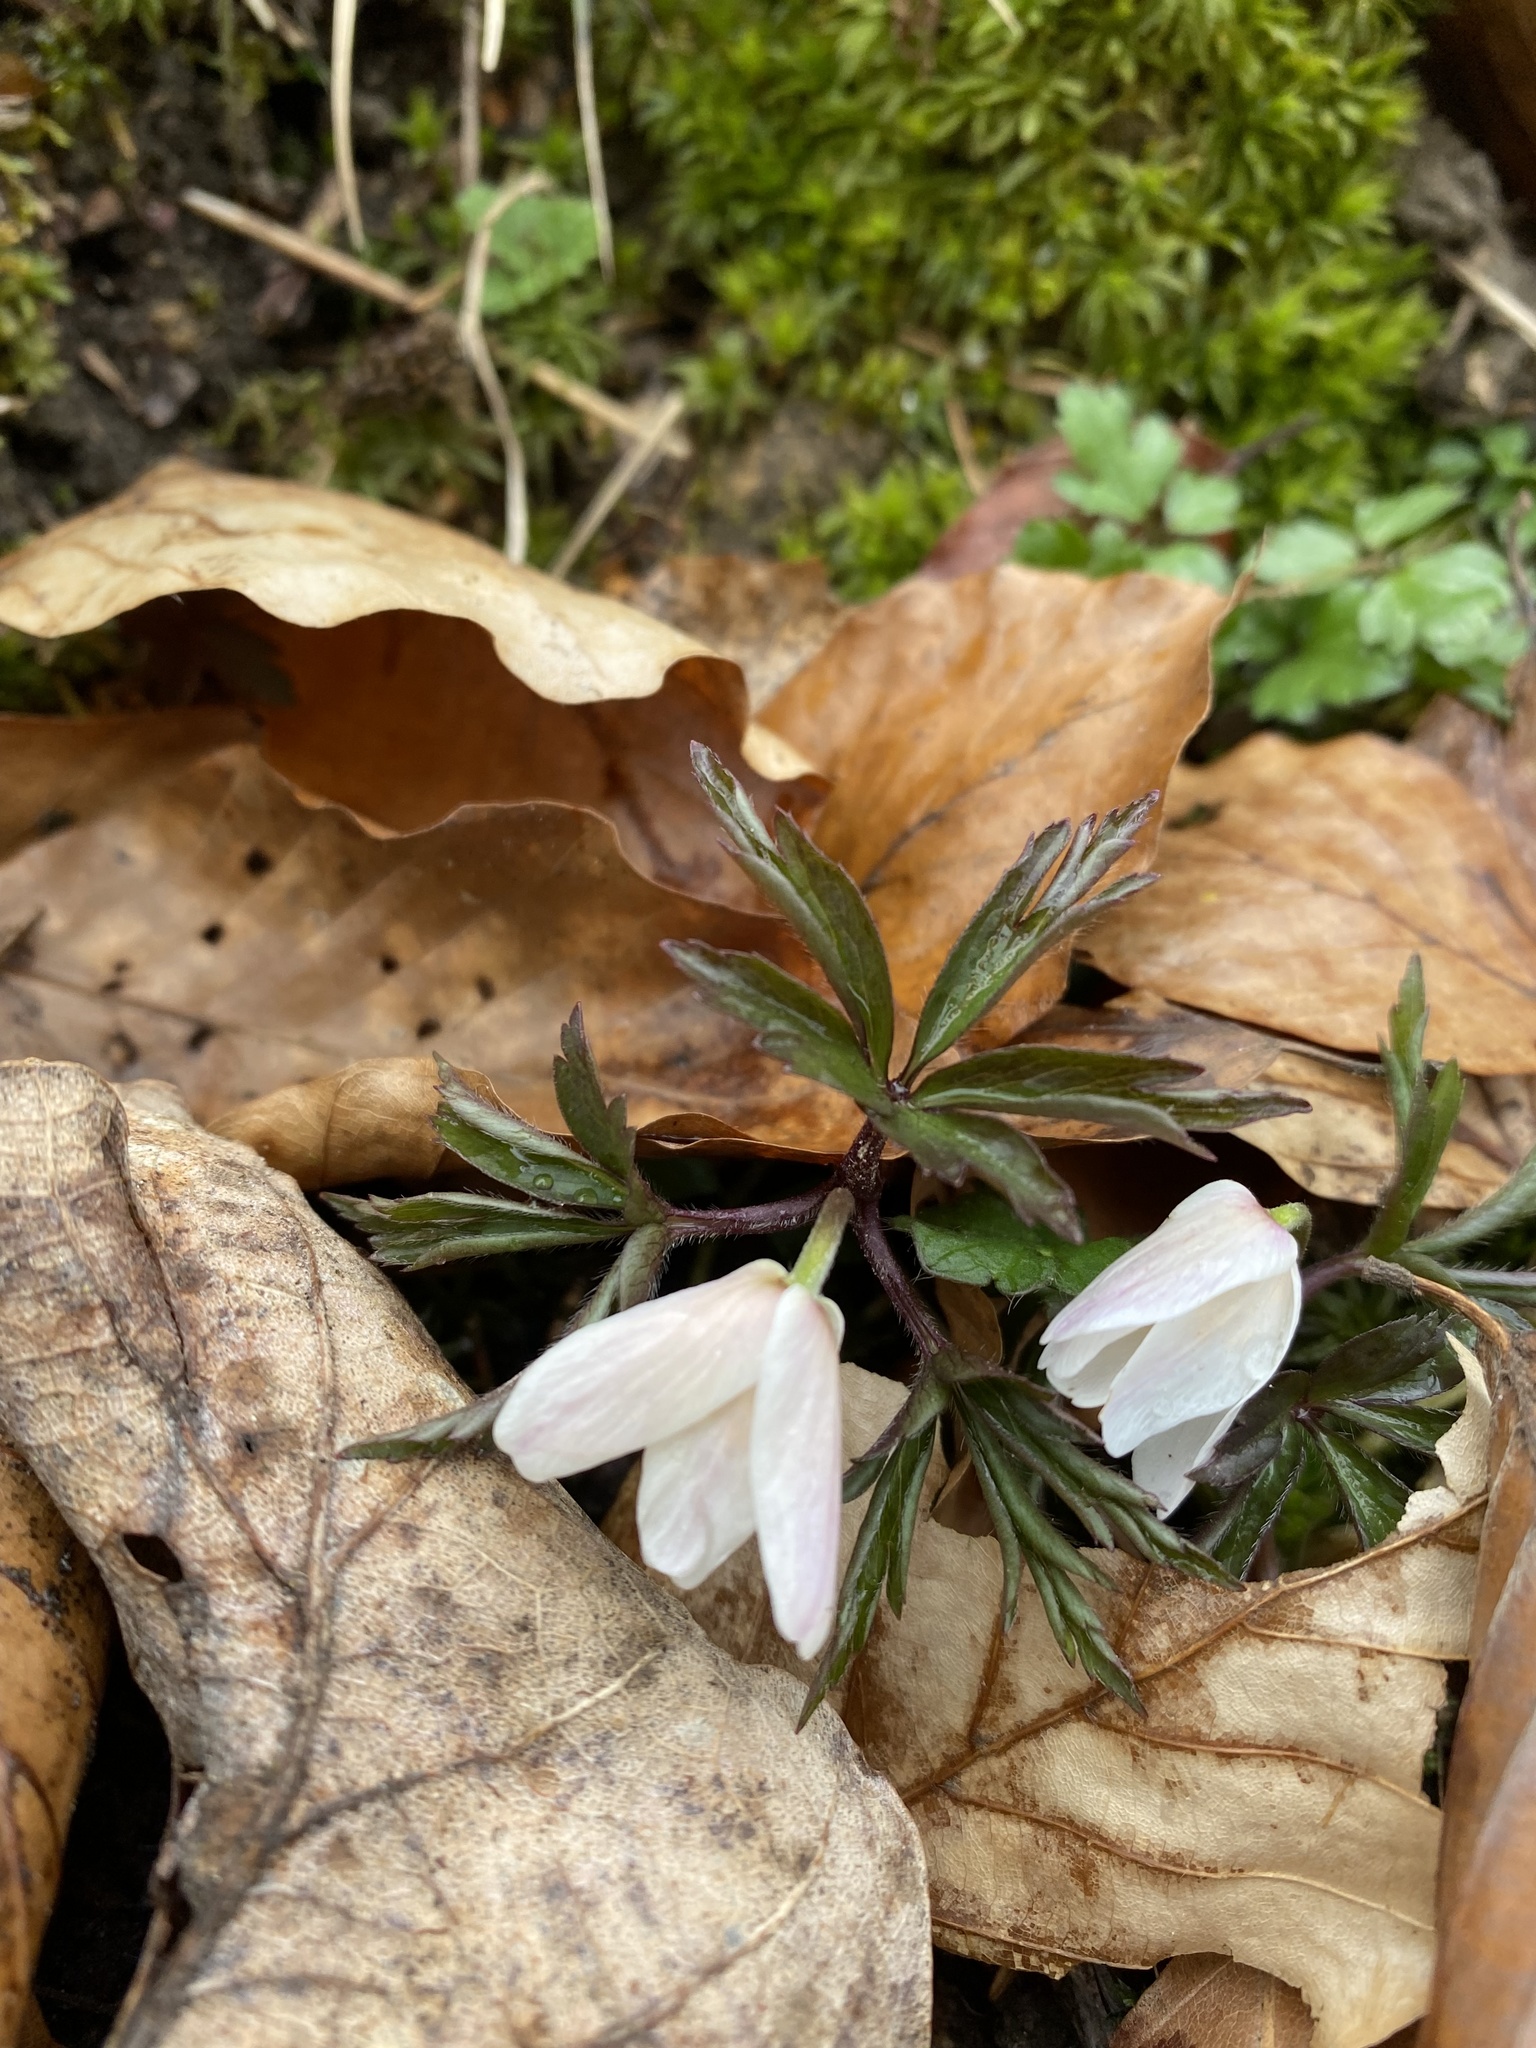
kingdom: Plantae
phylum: Tracheophyta
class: Magnoliopsida
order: Ranunculales
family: Ranunculaceae
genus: Anemone
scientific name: Anemone nemorosa
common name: Wood anemone
